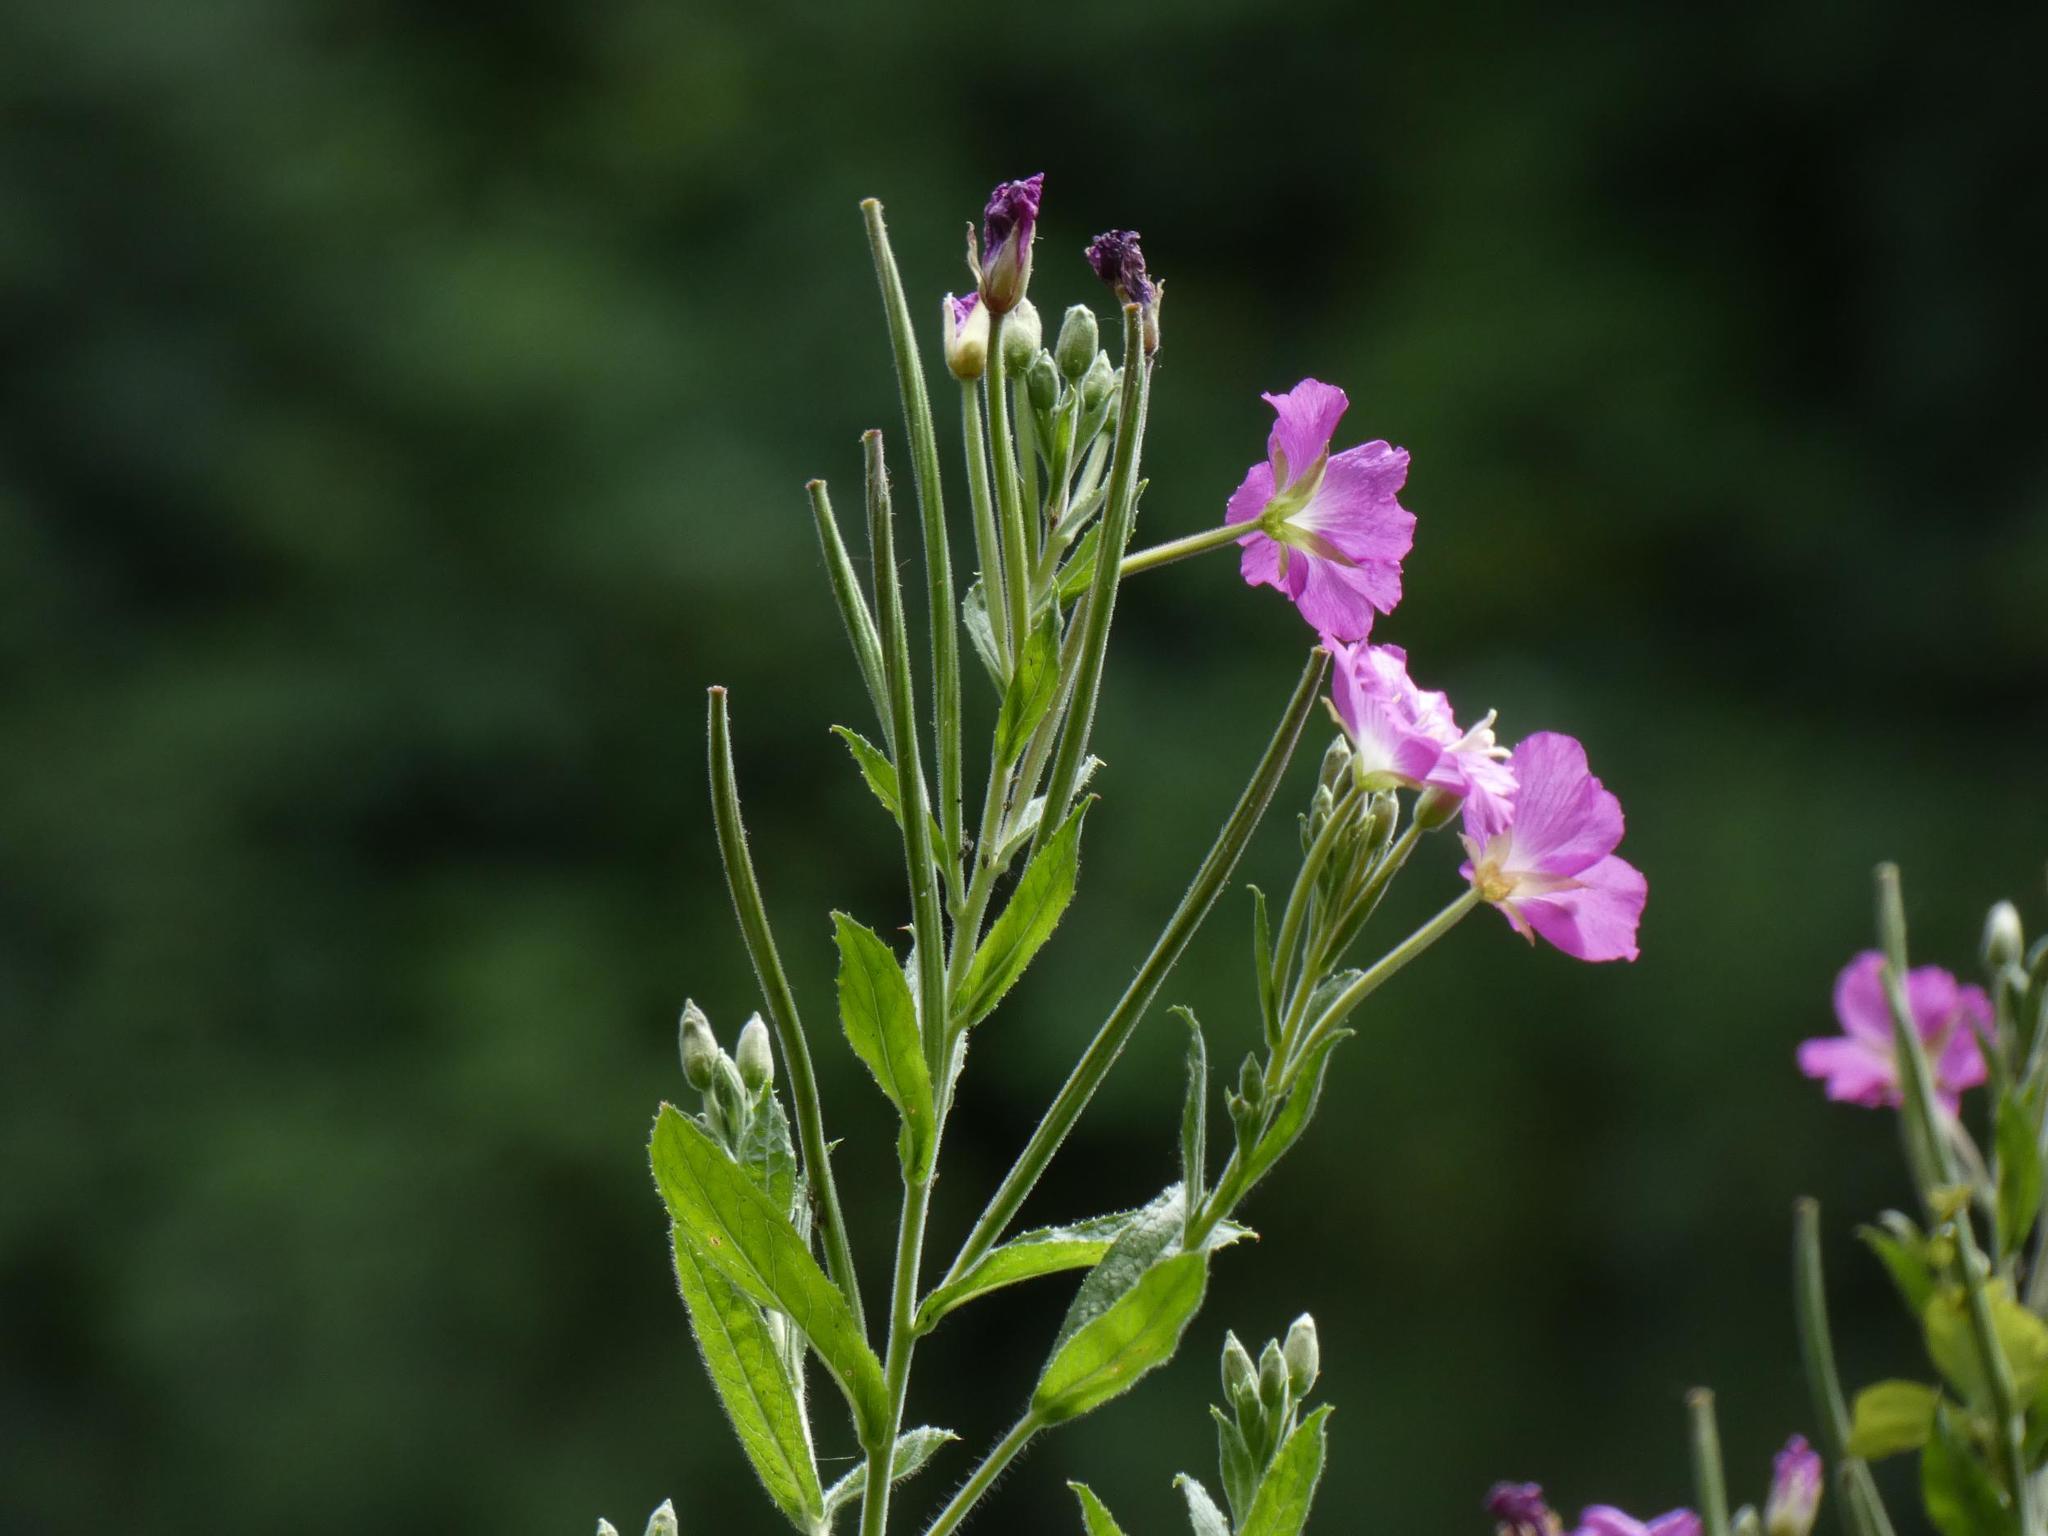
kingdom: Plantae
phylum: Tracheophyta
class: Magnoliopsida
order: Myrtales
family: Onagraceae
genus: Epilobium
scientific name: Epilobium hirsutum
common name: Great willowherb
